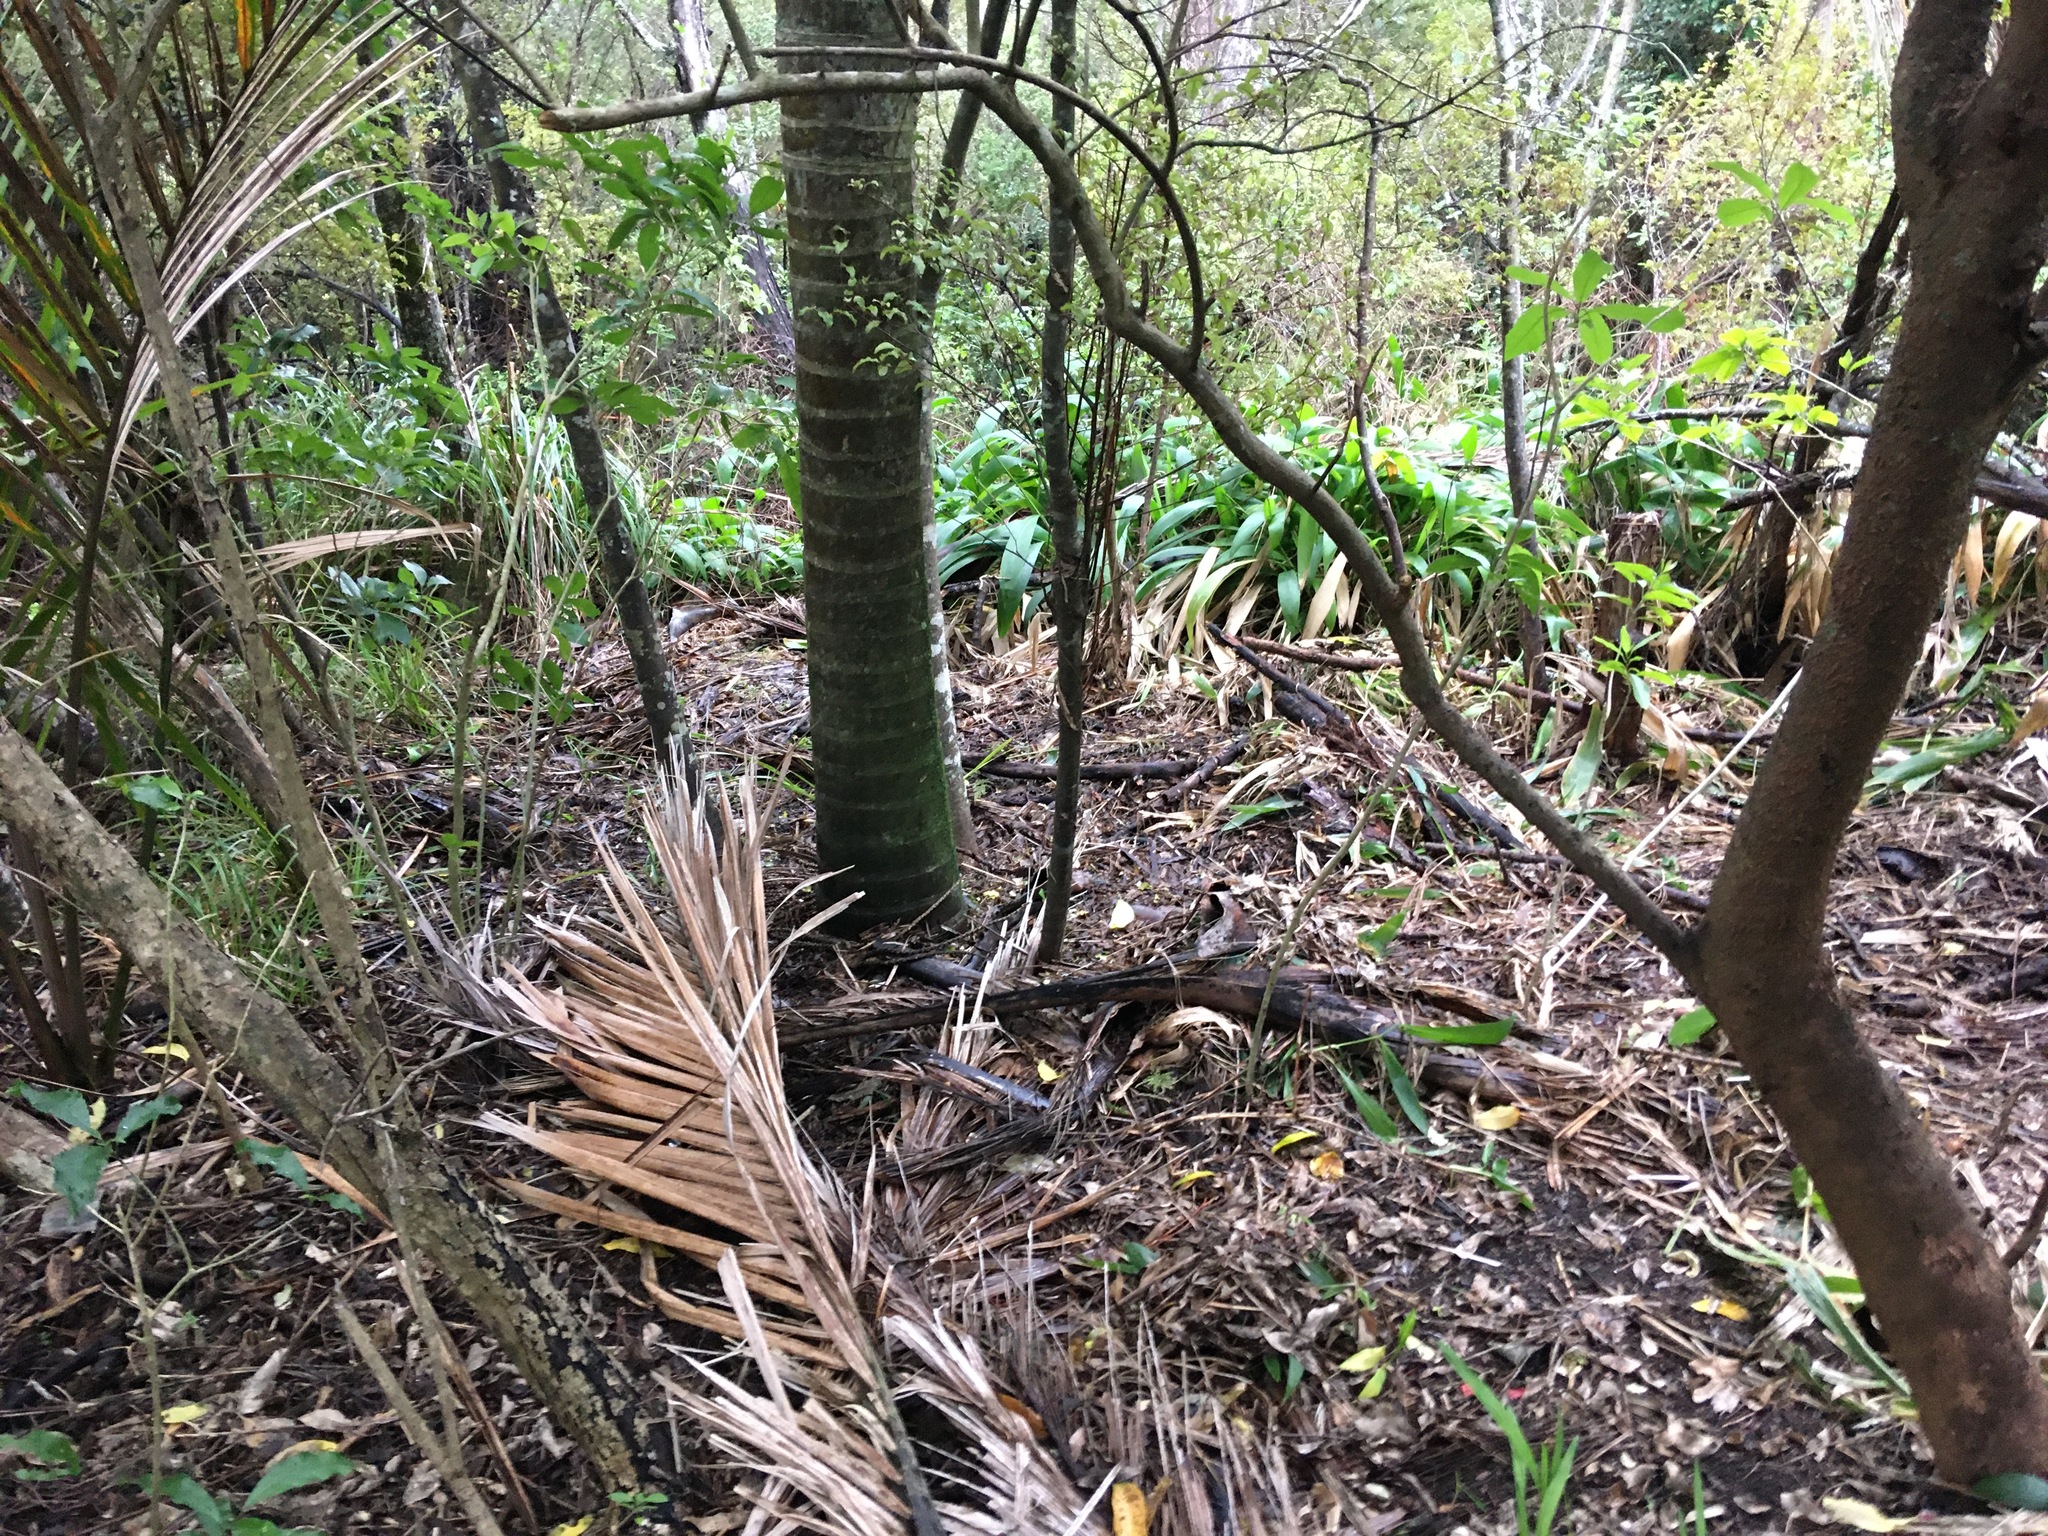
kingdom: Plantae
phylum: Tracheophyta
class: Liliopsida
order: Arecales
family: Arecaceae
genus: Rhopalostylis
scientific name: Rhopalostylis sapida
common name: Feather-duster palm
